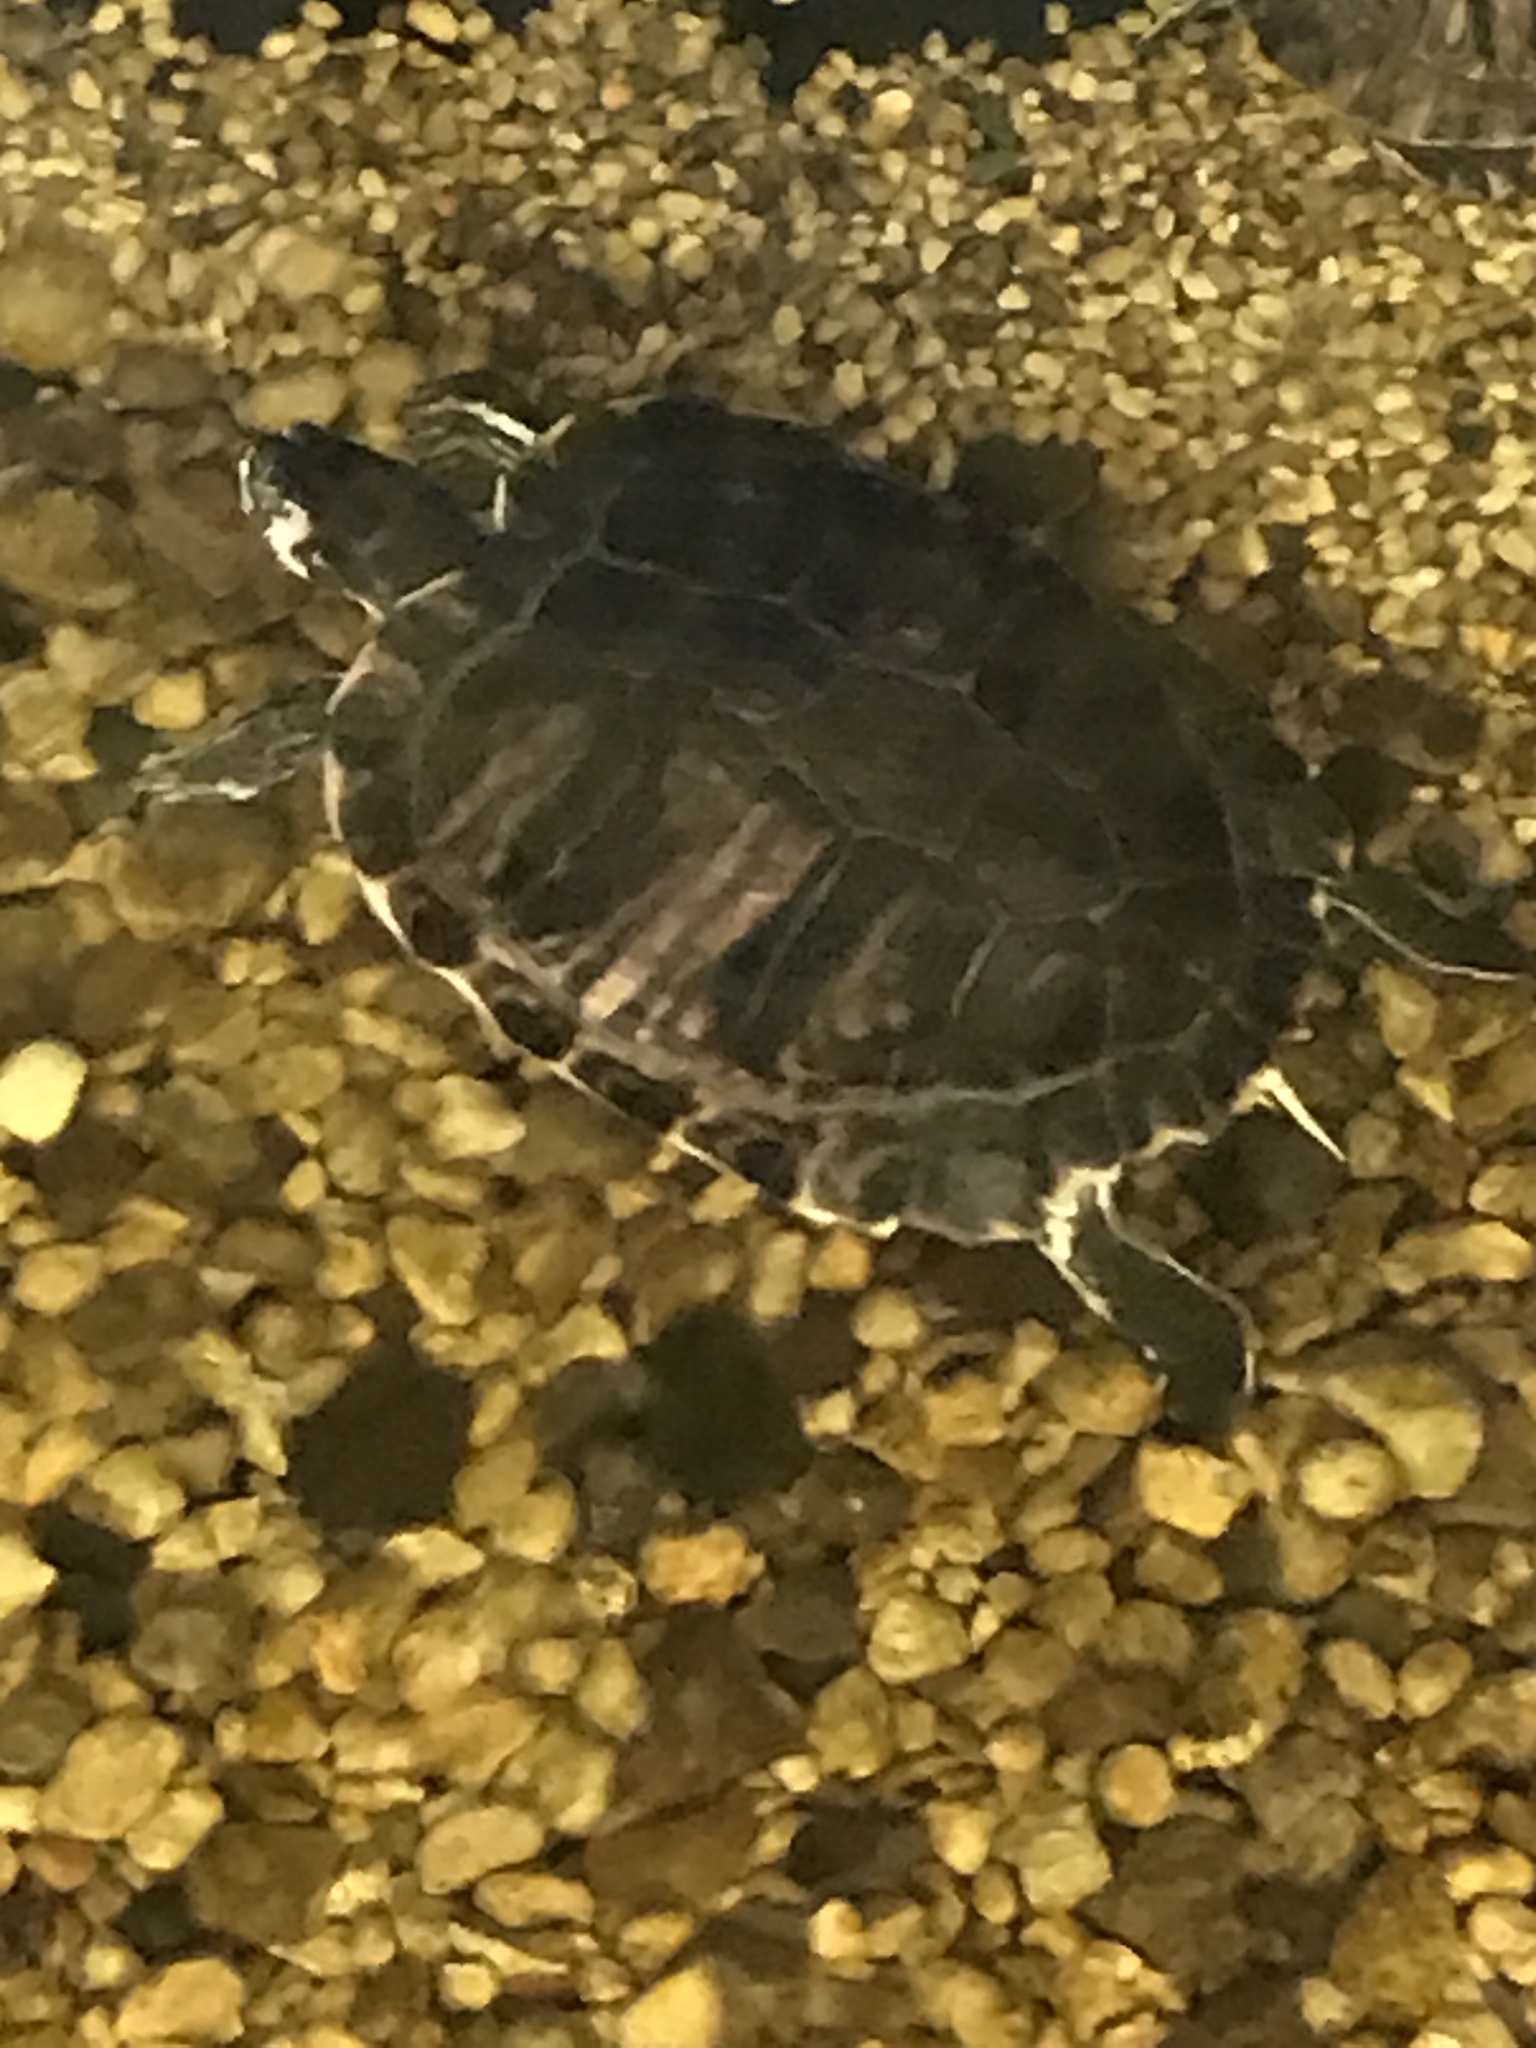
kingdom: Animalia
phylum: Chordata
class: Testudines
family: Emydidae
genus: Trachemys
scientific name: Trachemys scripta
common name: Slider
